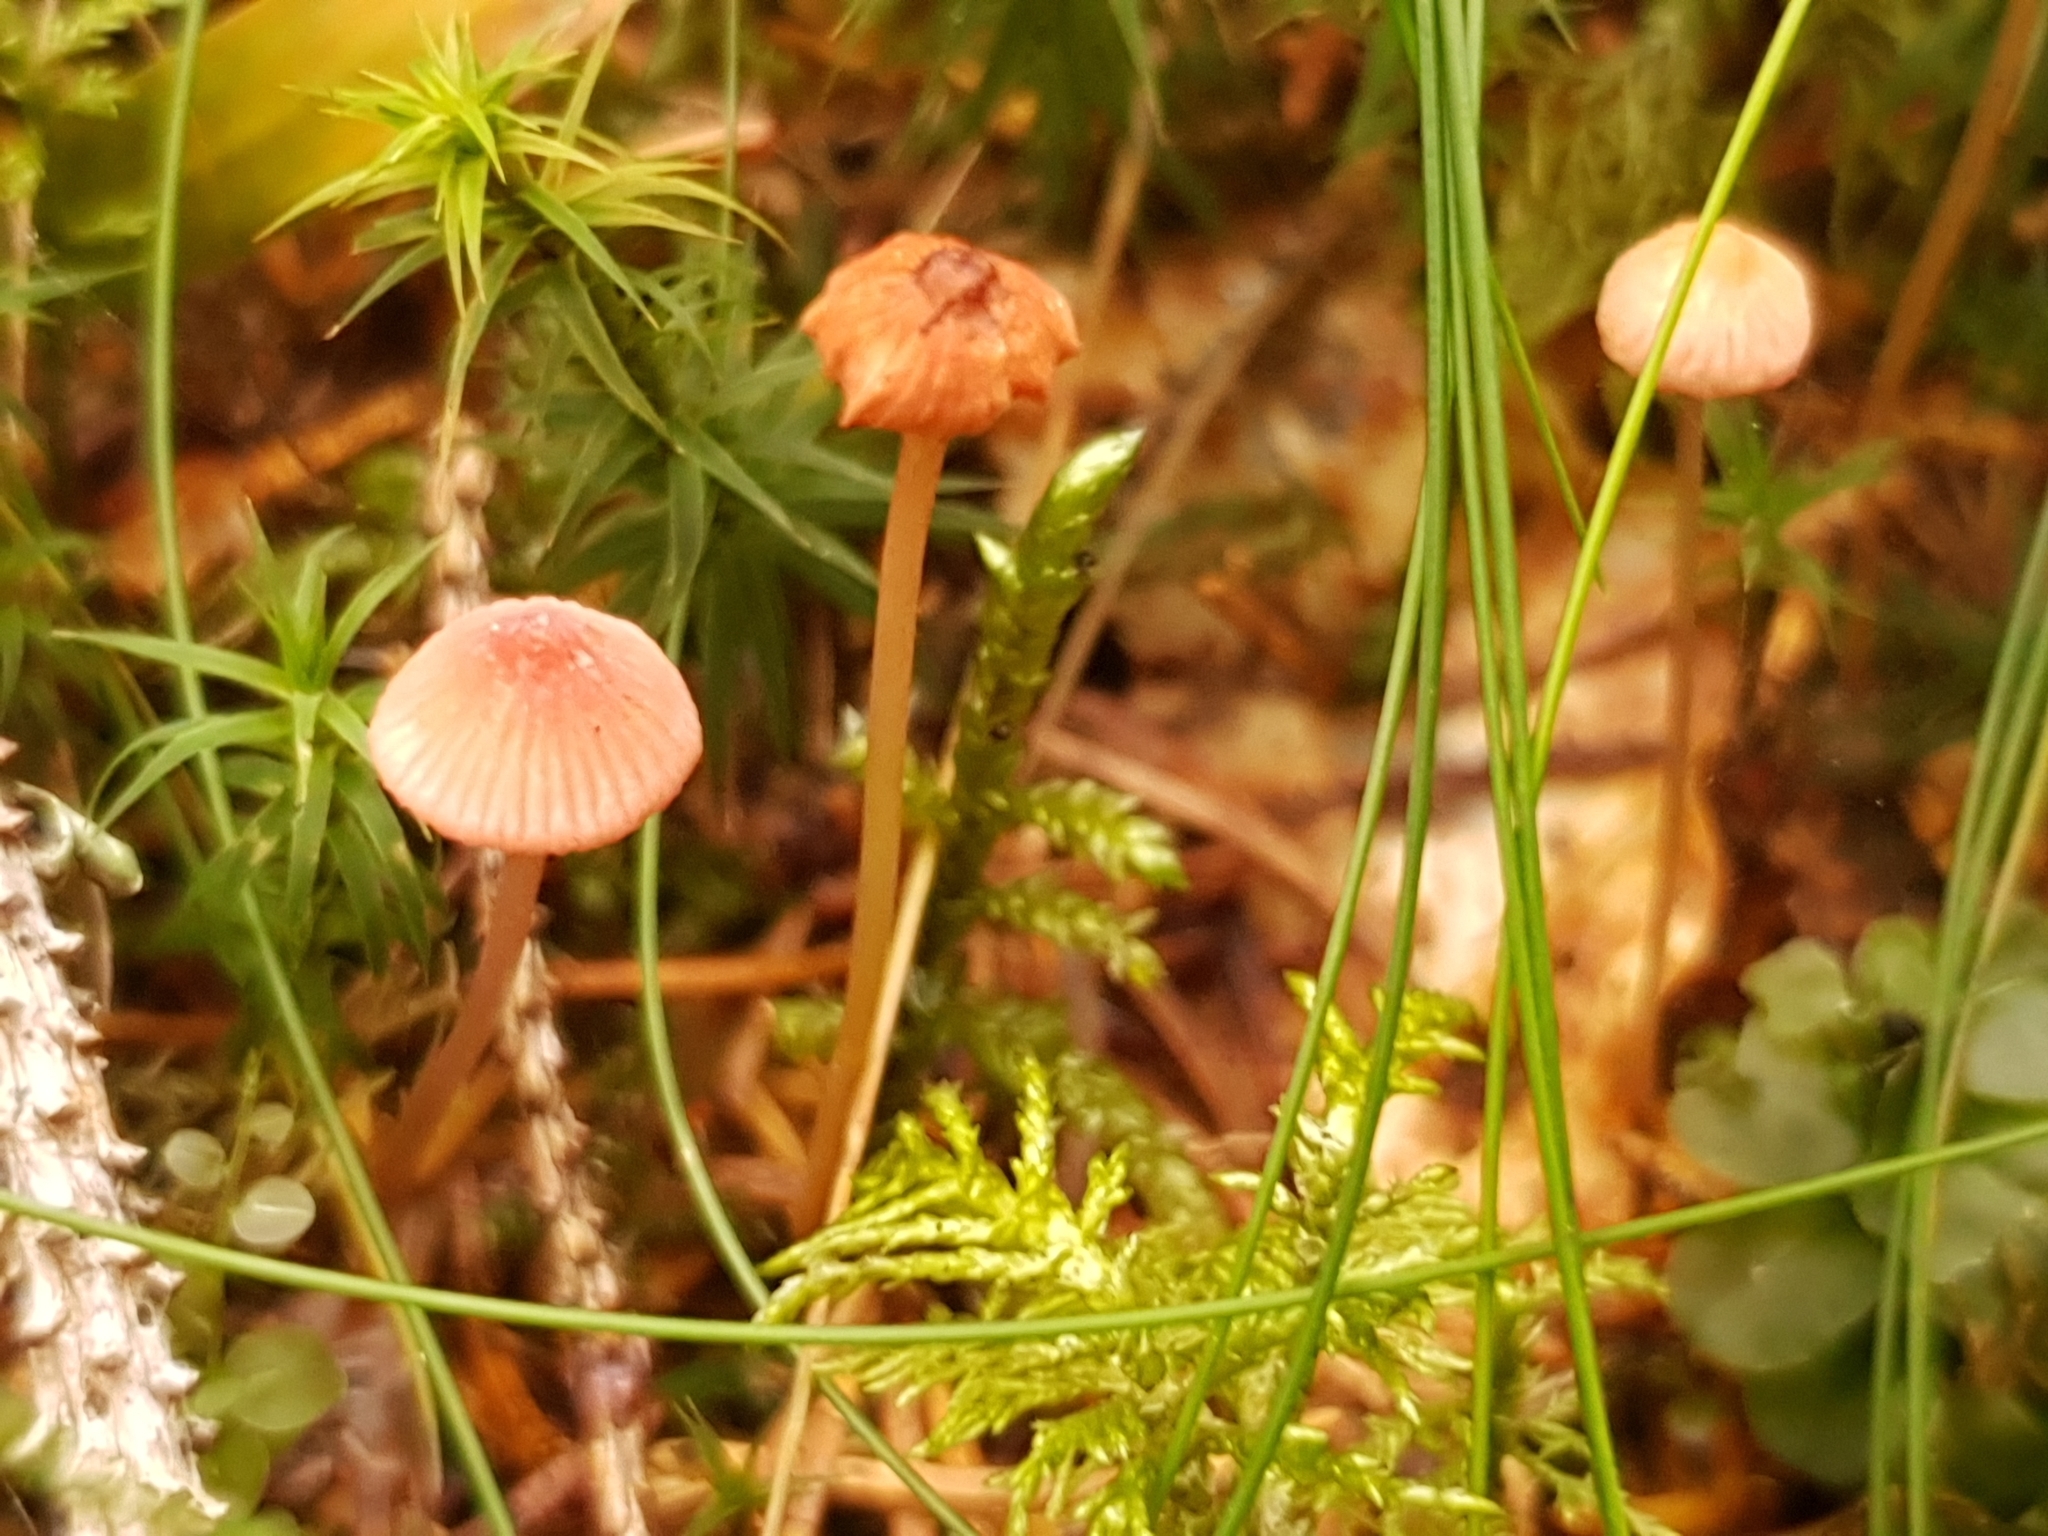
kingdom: Fungi
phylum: Basidiomycota
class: Agaricomycetes
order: Agaricales
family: Mycenaceae
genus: Mycena
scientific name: Mycena rosella
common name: Pink bonnet
